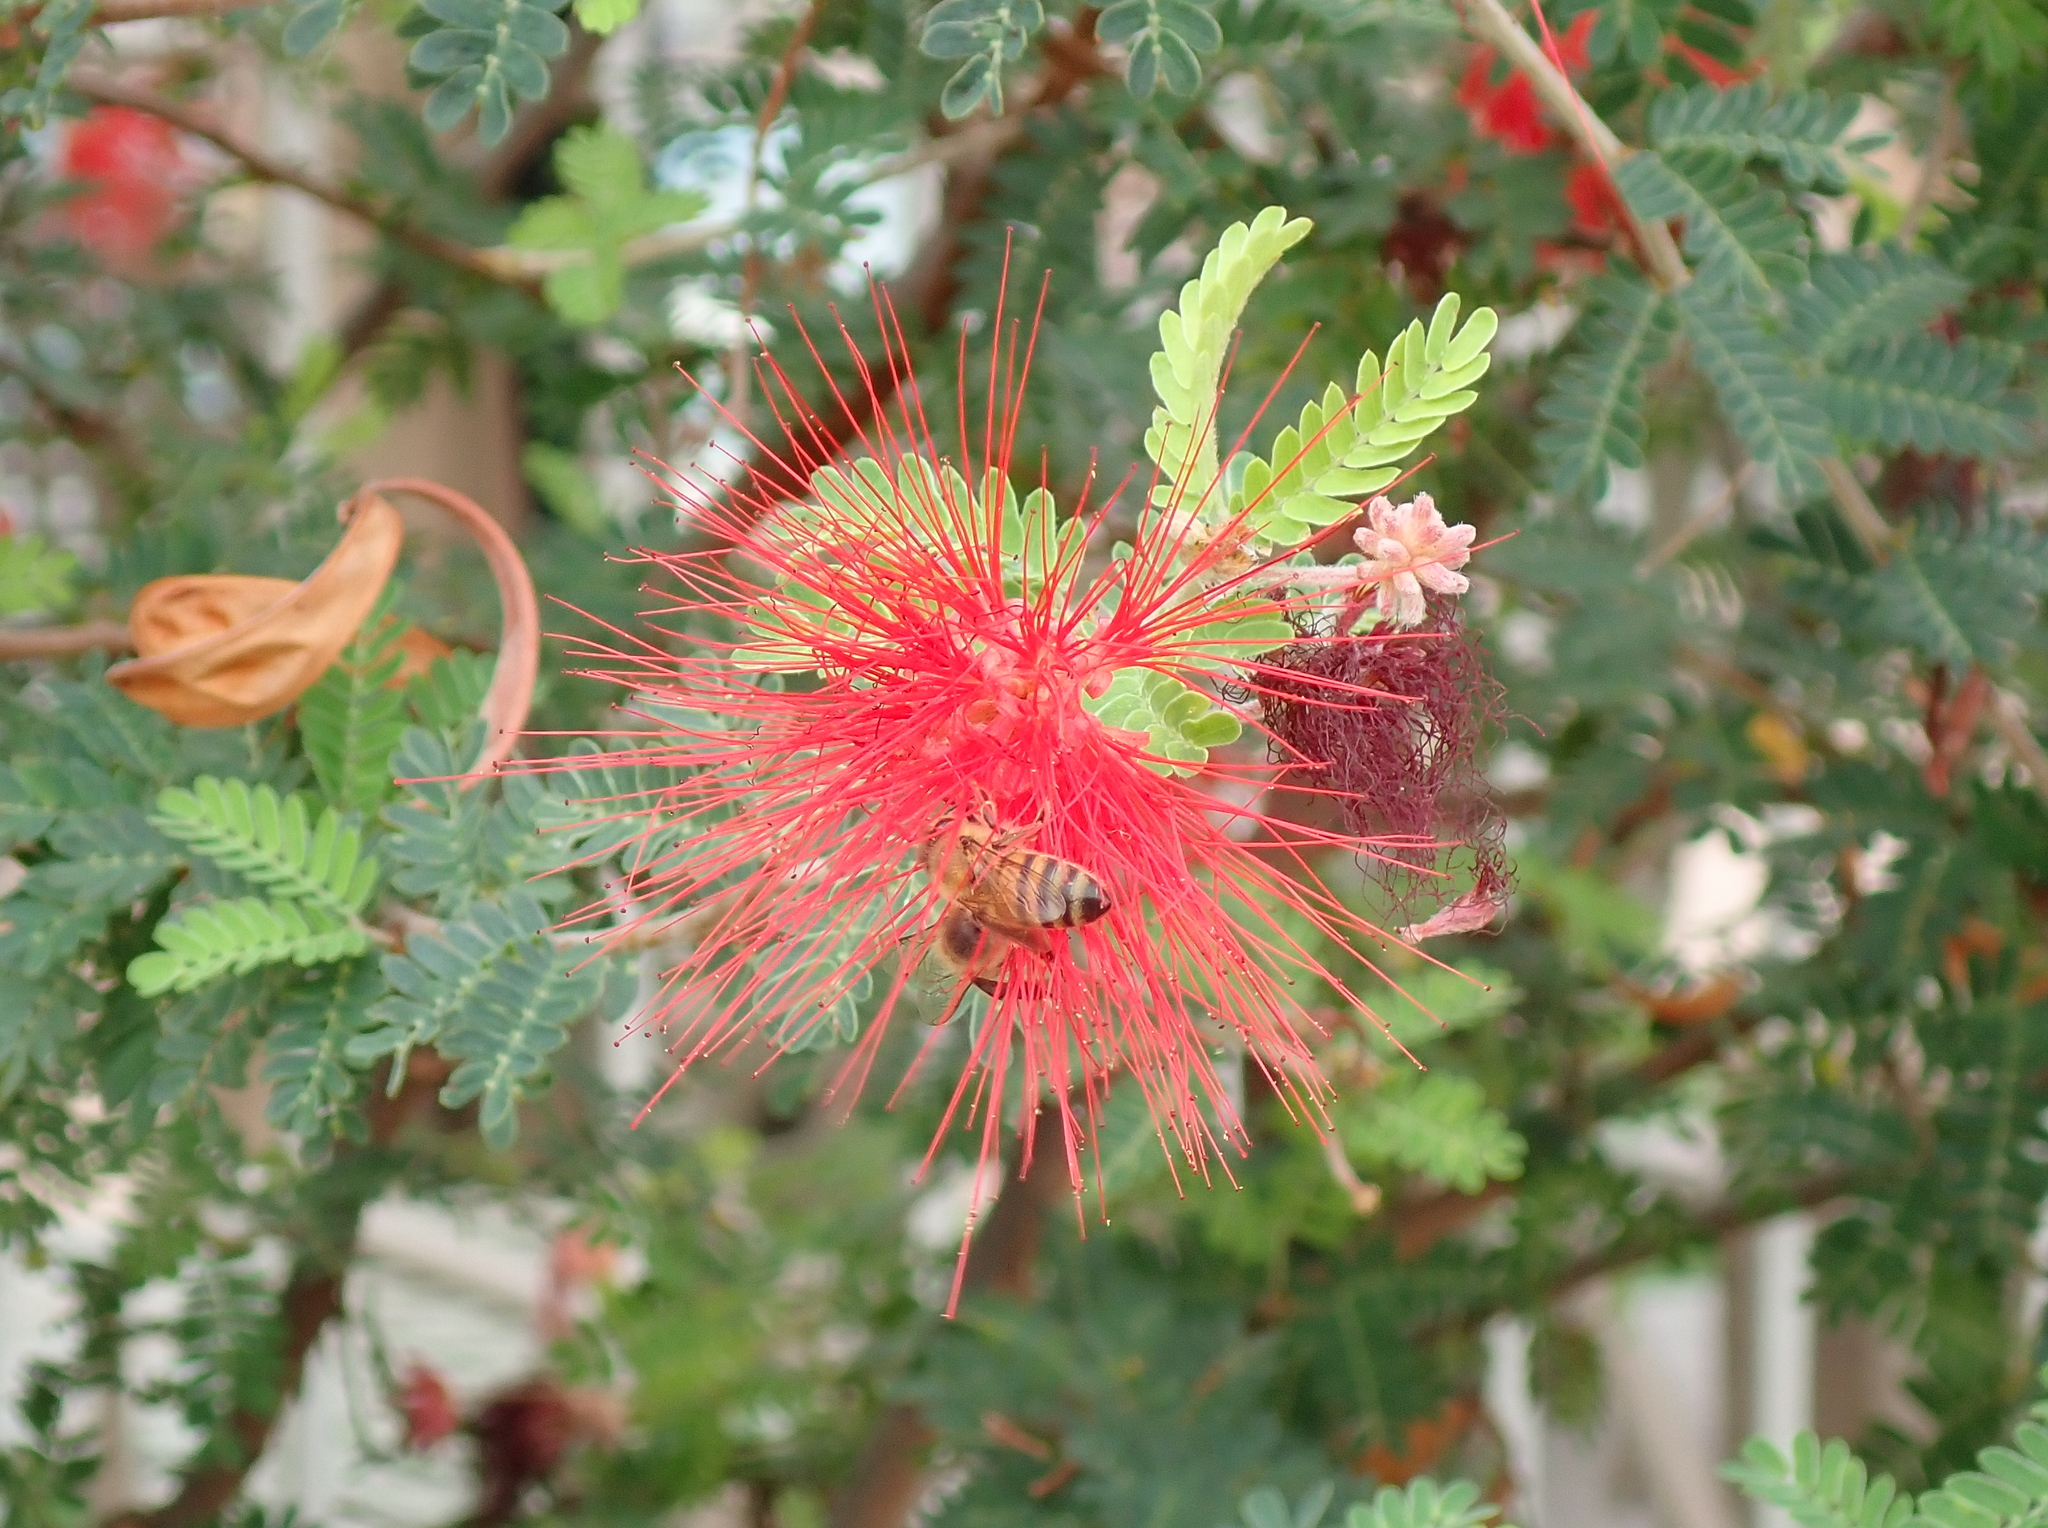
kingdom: Animalia
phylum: Arthropoda
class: Insecta
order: Hymenoptera
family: Apidae
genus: Apis
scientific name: Apis mellifera
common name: Honey bee
